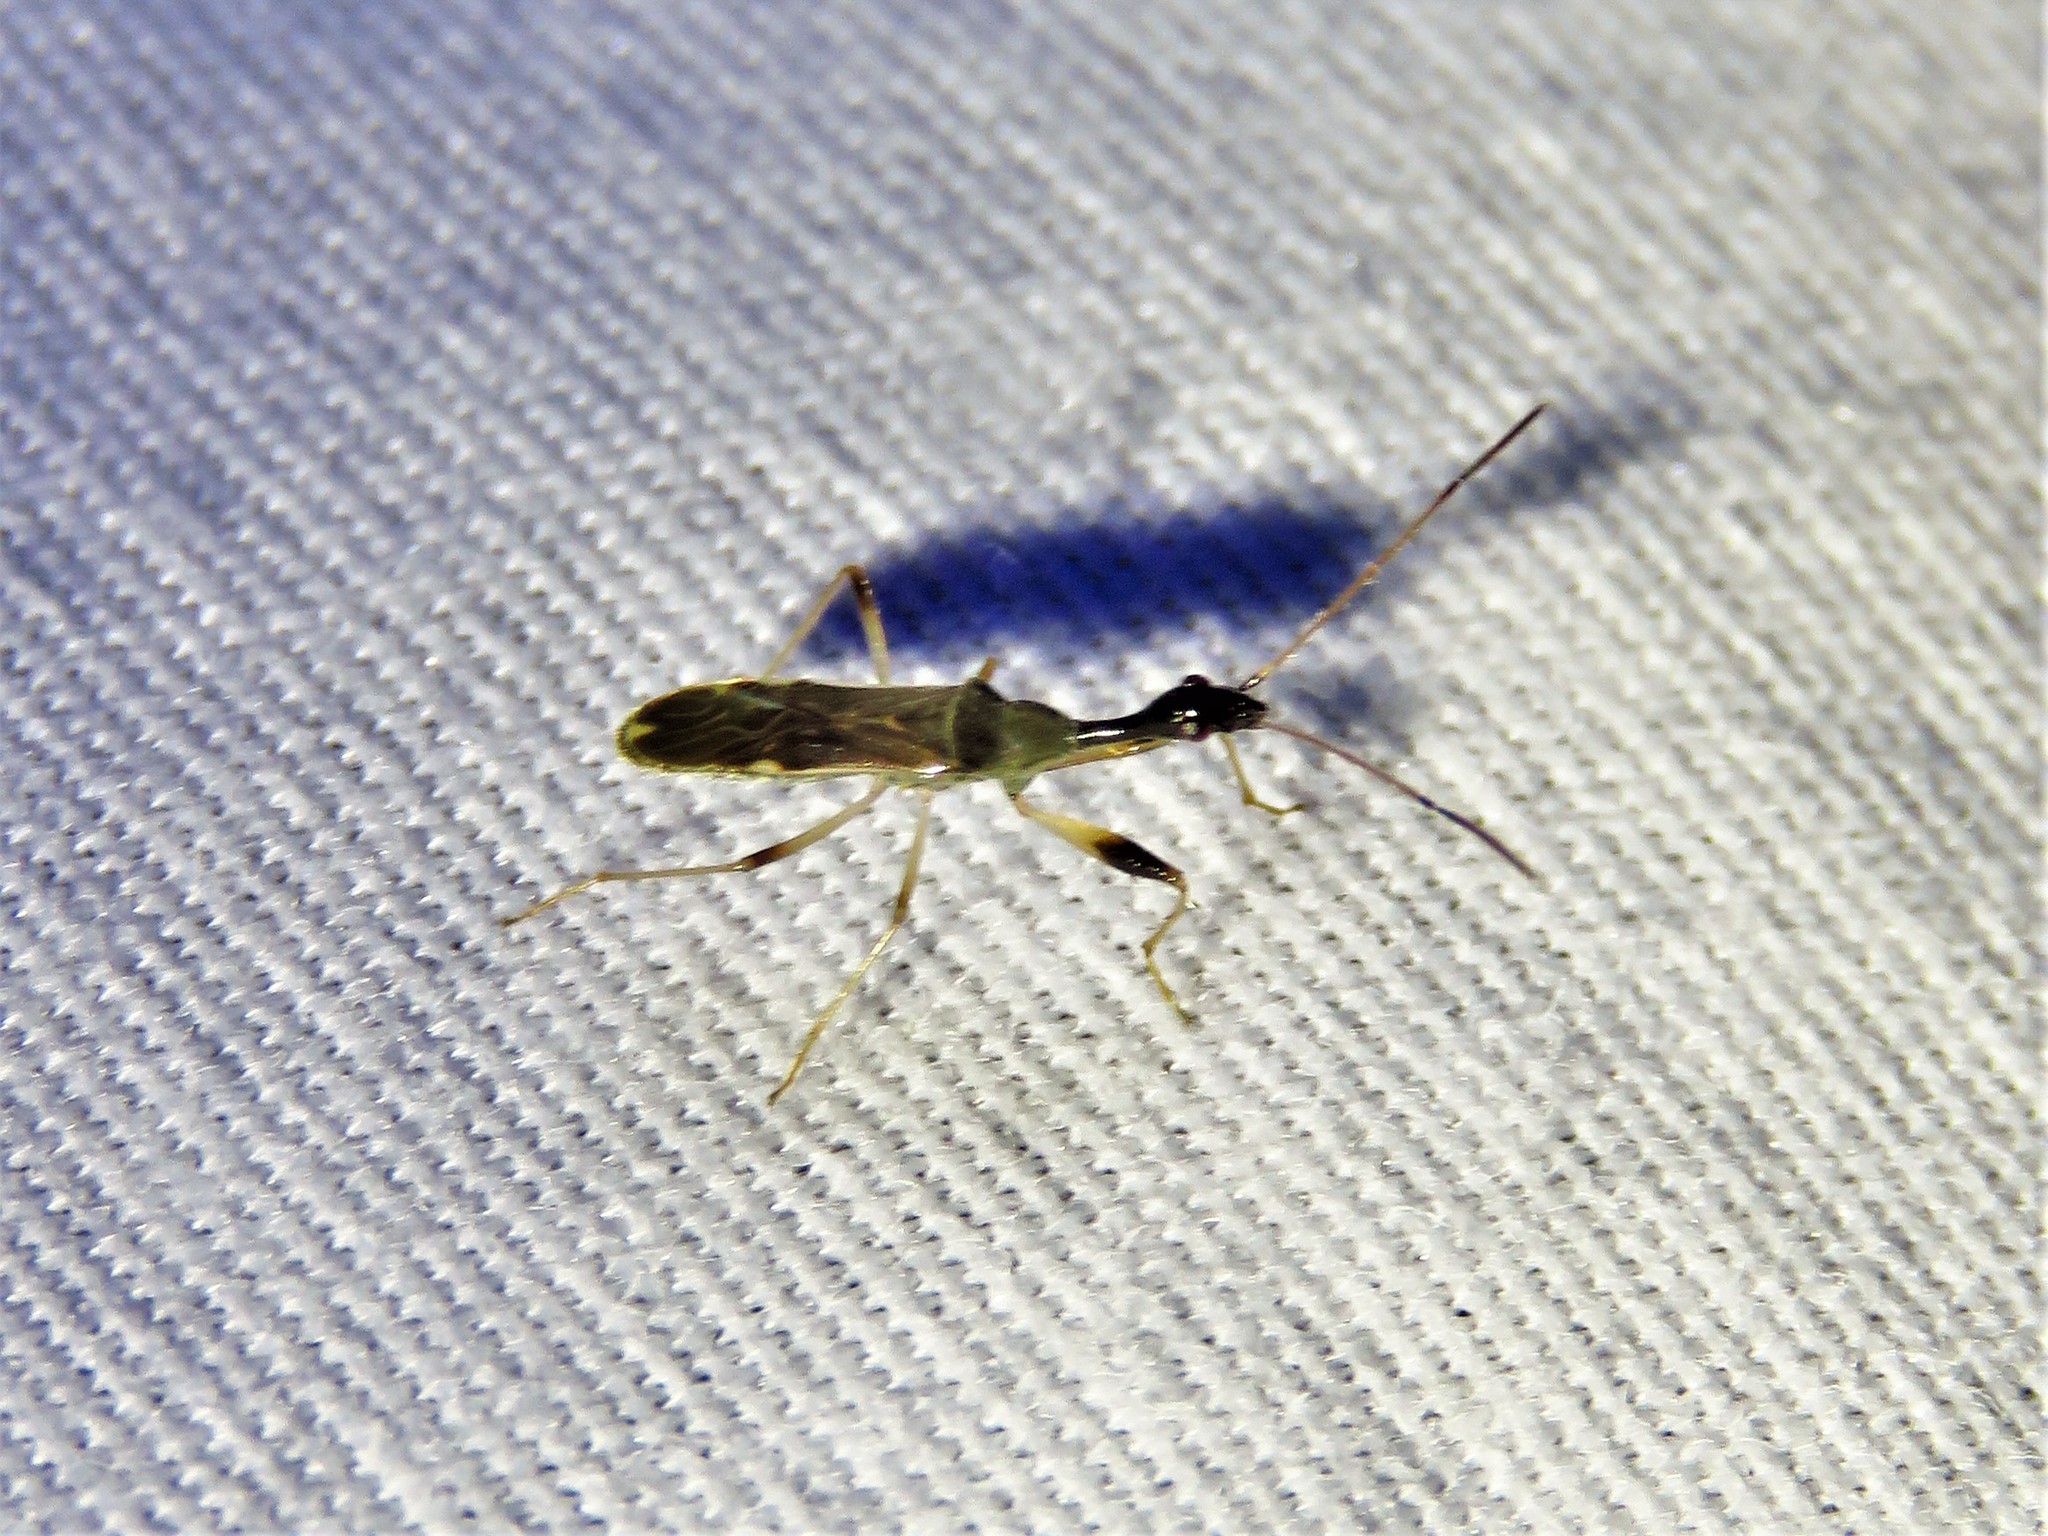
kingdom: Animalia
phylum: Arthropoda
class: Insecta
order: Hemiptera
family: Rhyparochromidae
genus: Myodocha
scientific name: Myodocha serripes
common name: Long-necked seed bug
